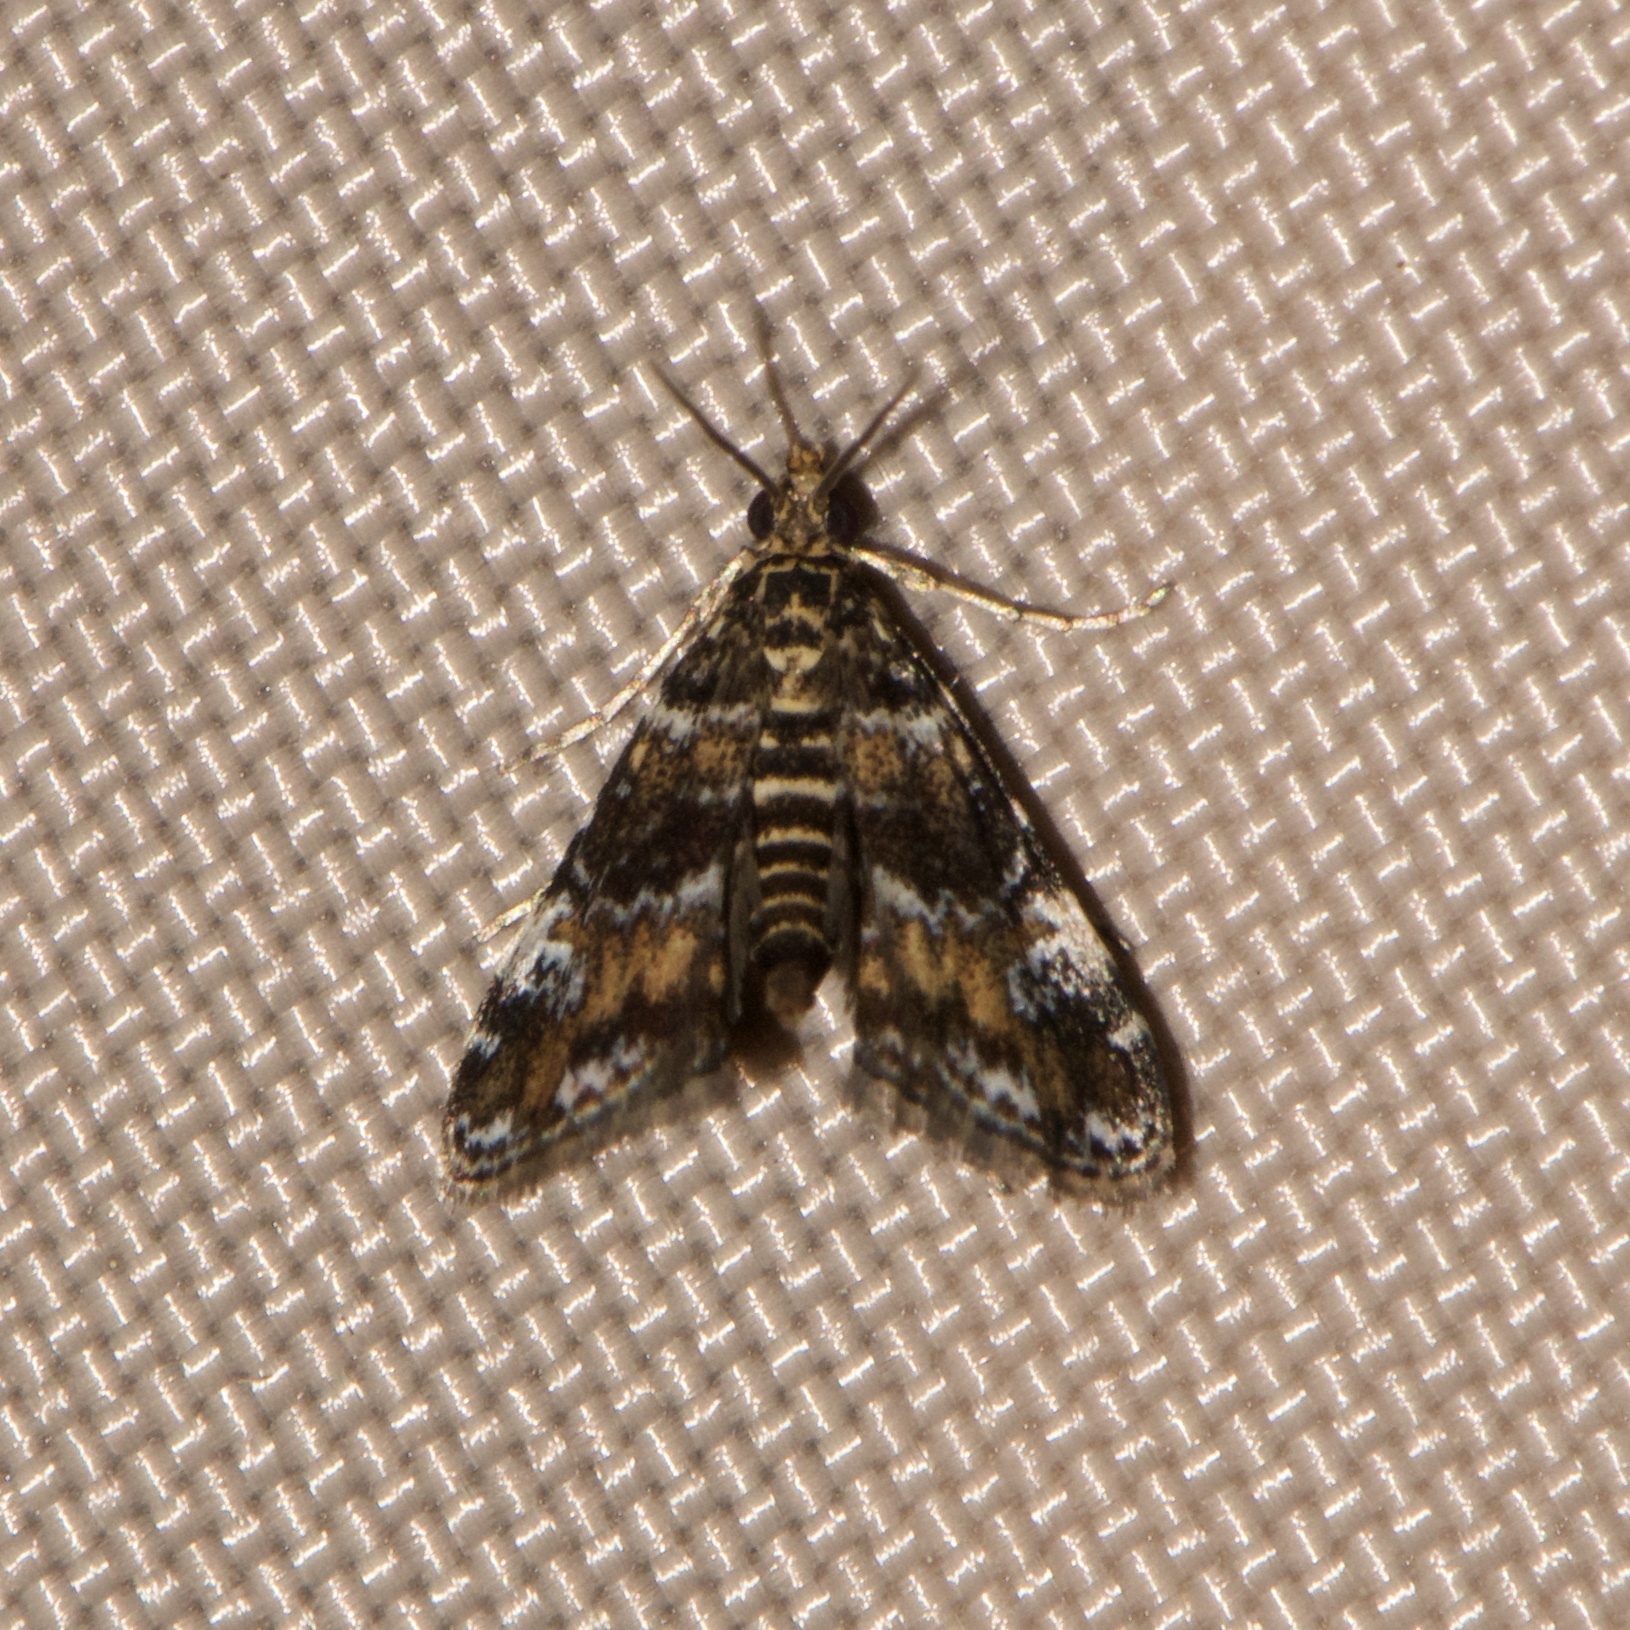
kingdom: Animalia
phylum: Arthropoda
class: Insecta
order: Lepidoptera
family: Crambidae
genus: Elophila
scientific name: Elophila obliteralis
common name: Waterlily leafcutter moth
